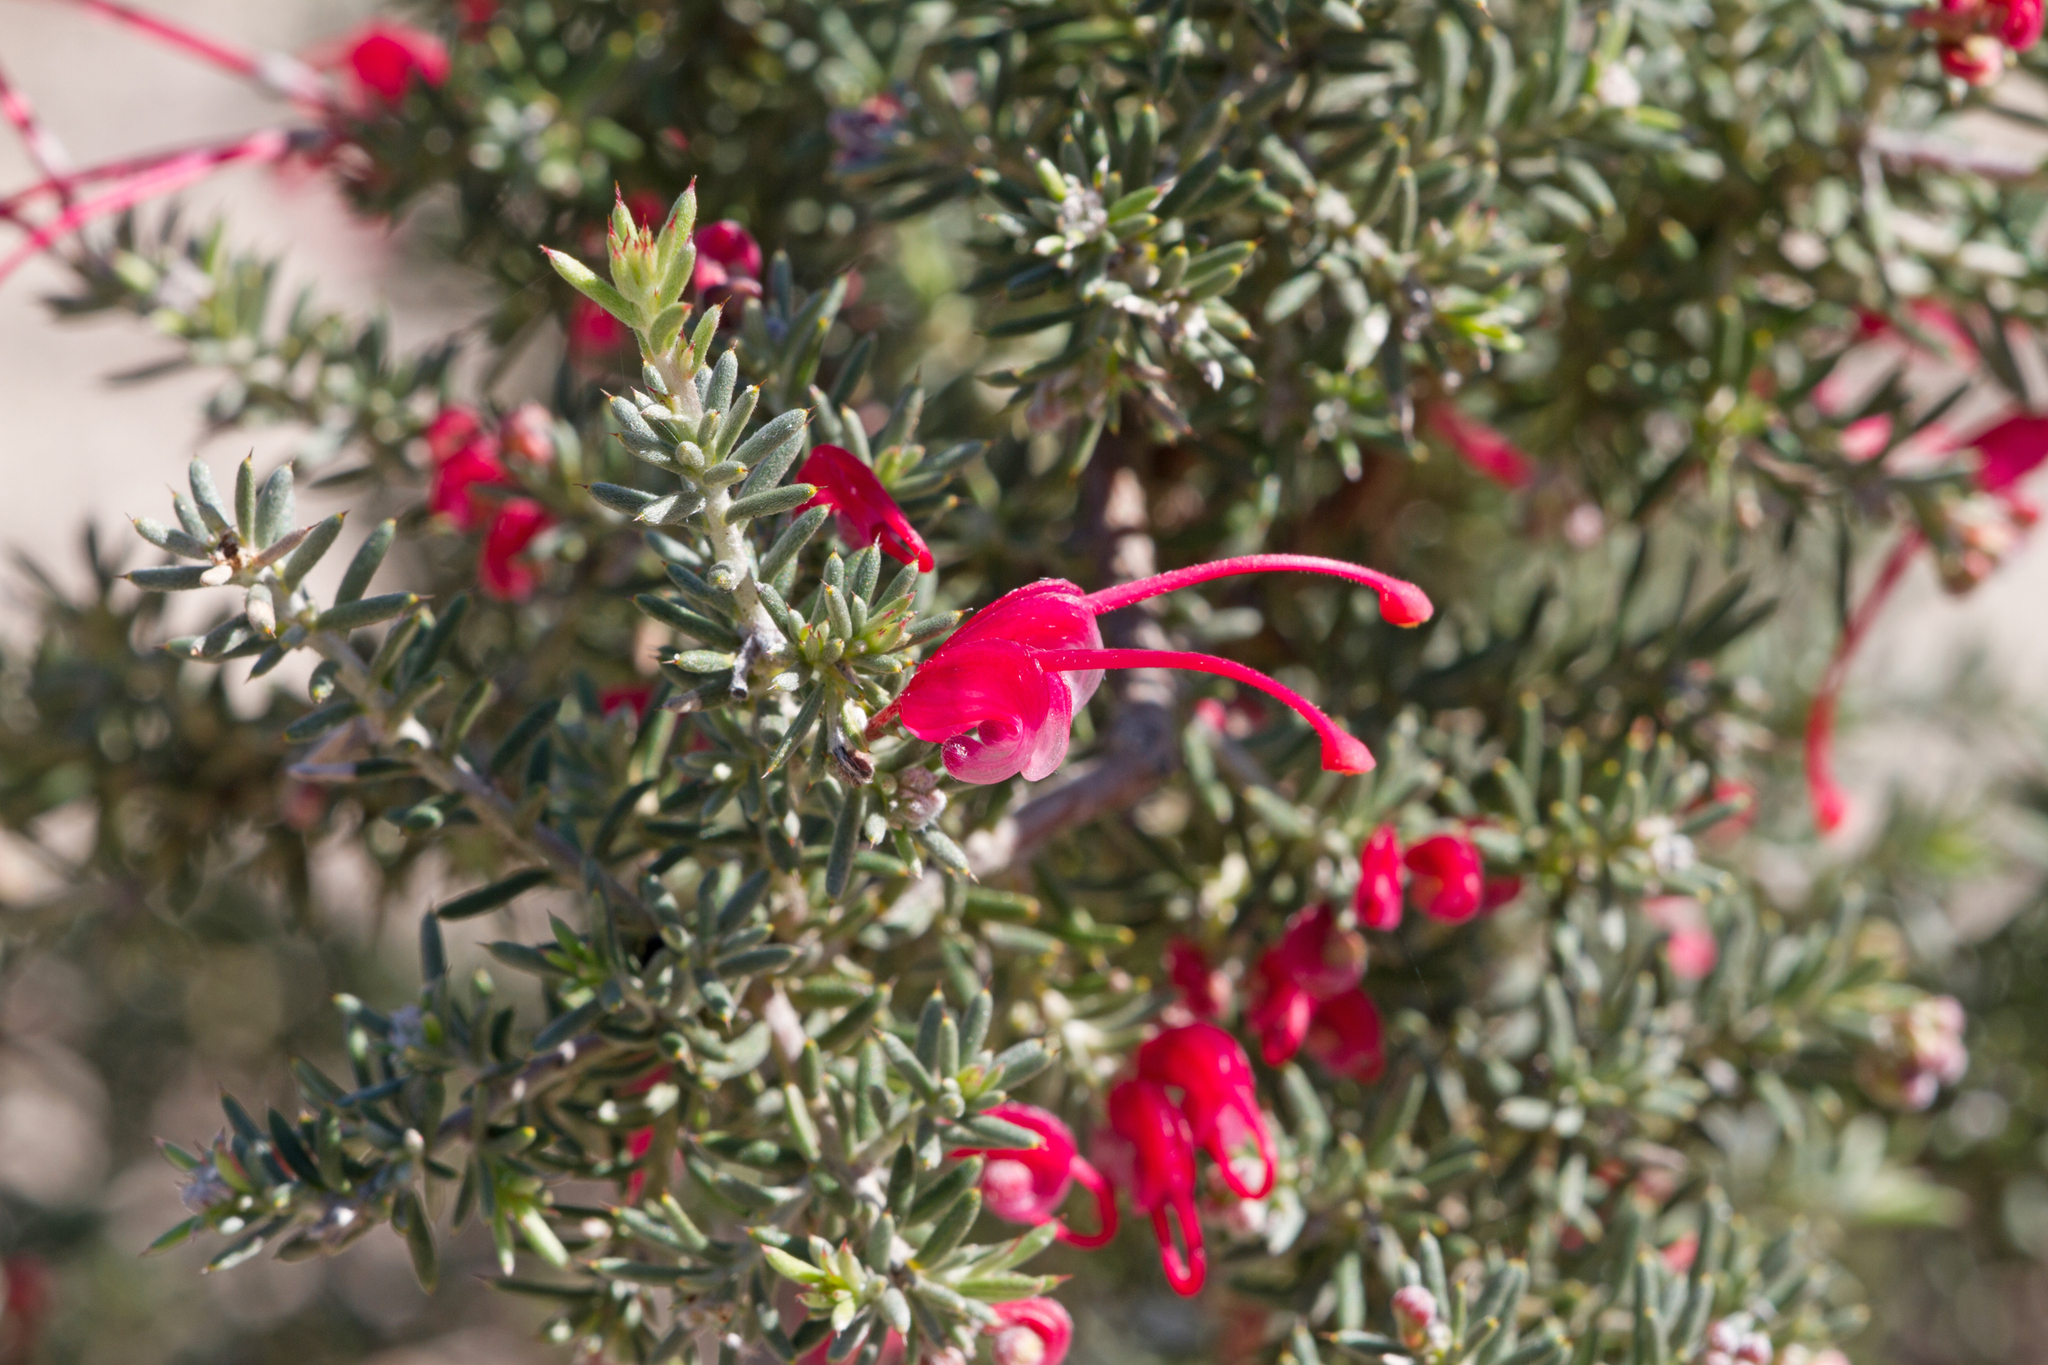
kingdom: Plantae
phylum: Tracheophyta
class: Magnoliopsida
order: Proteales
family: Proteaceae
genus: Grevillea
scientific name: Grevillea lavandulacea
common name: Lavender grevillea
